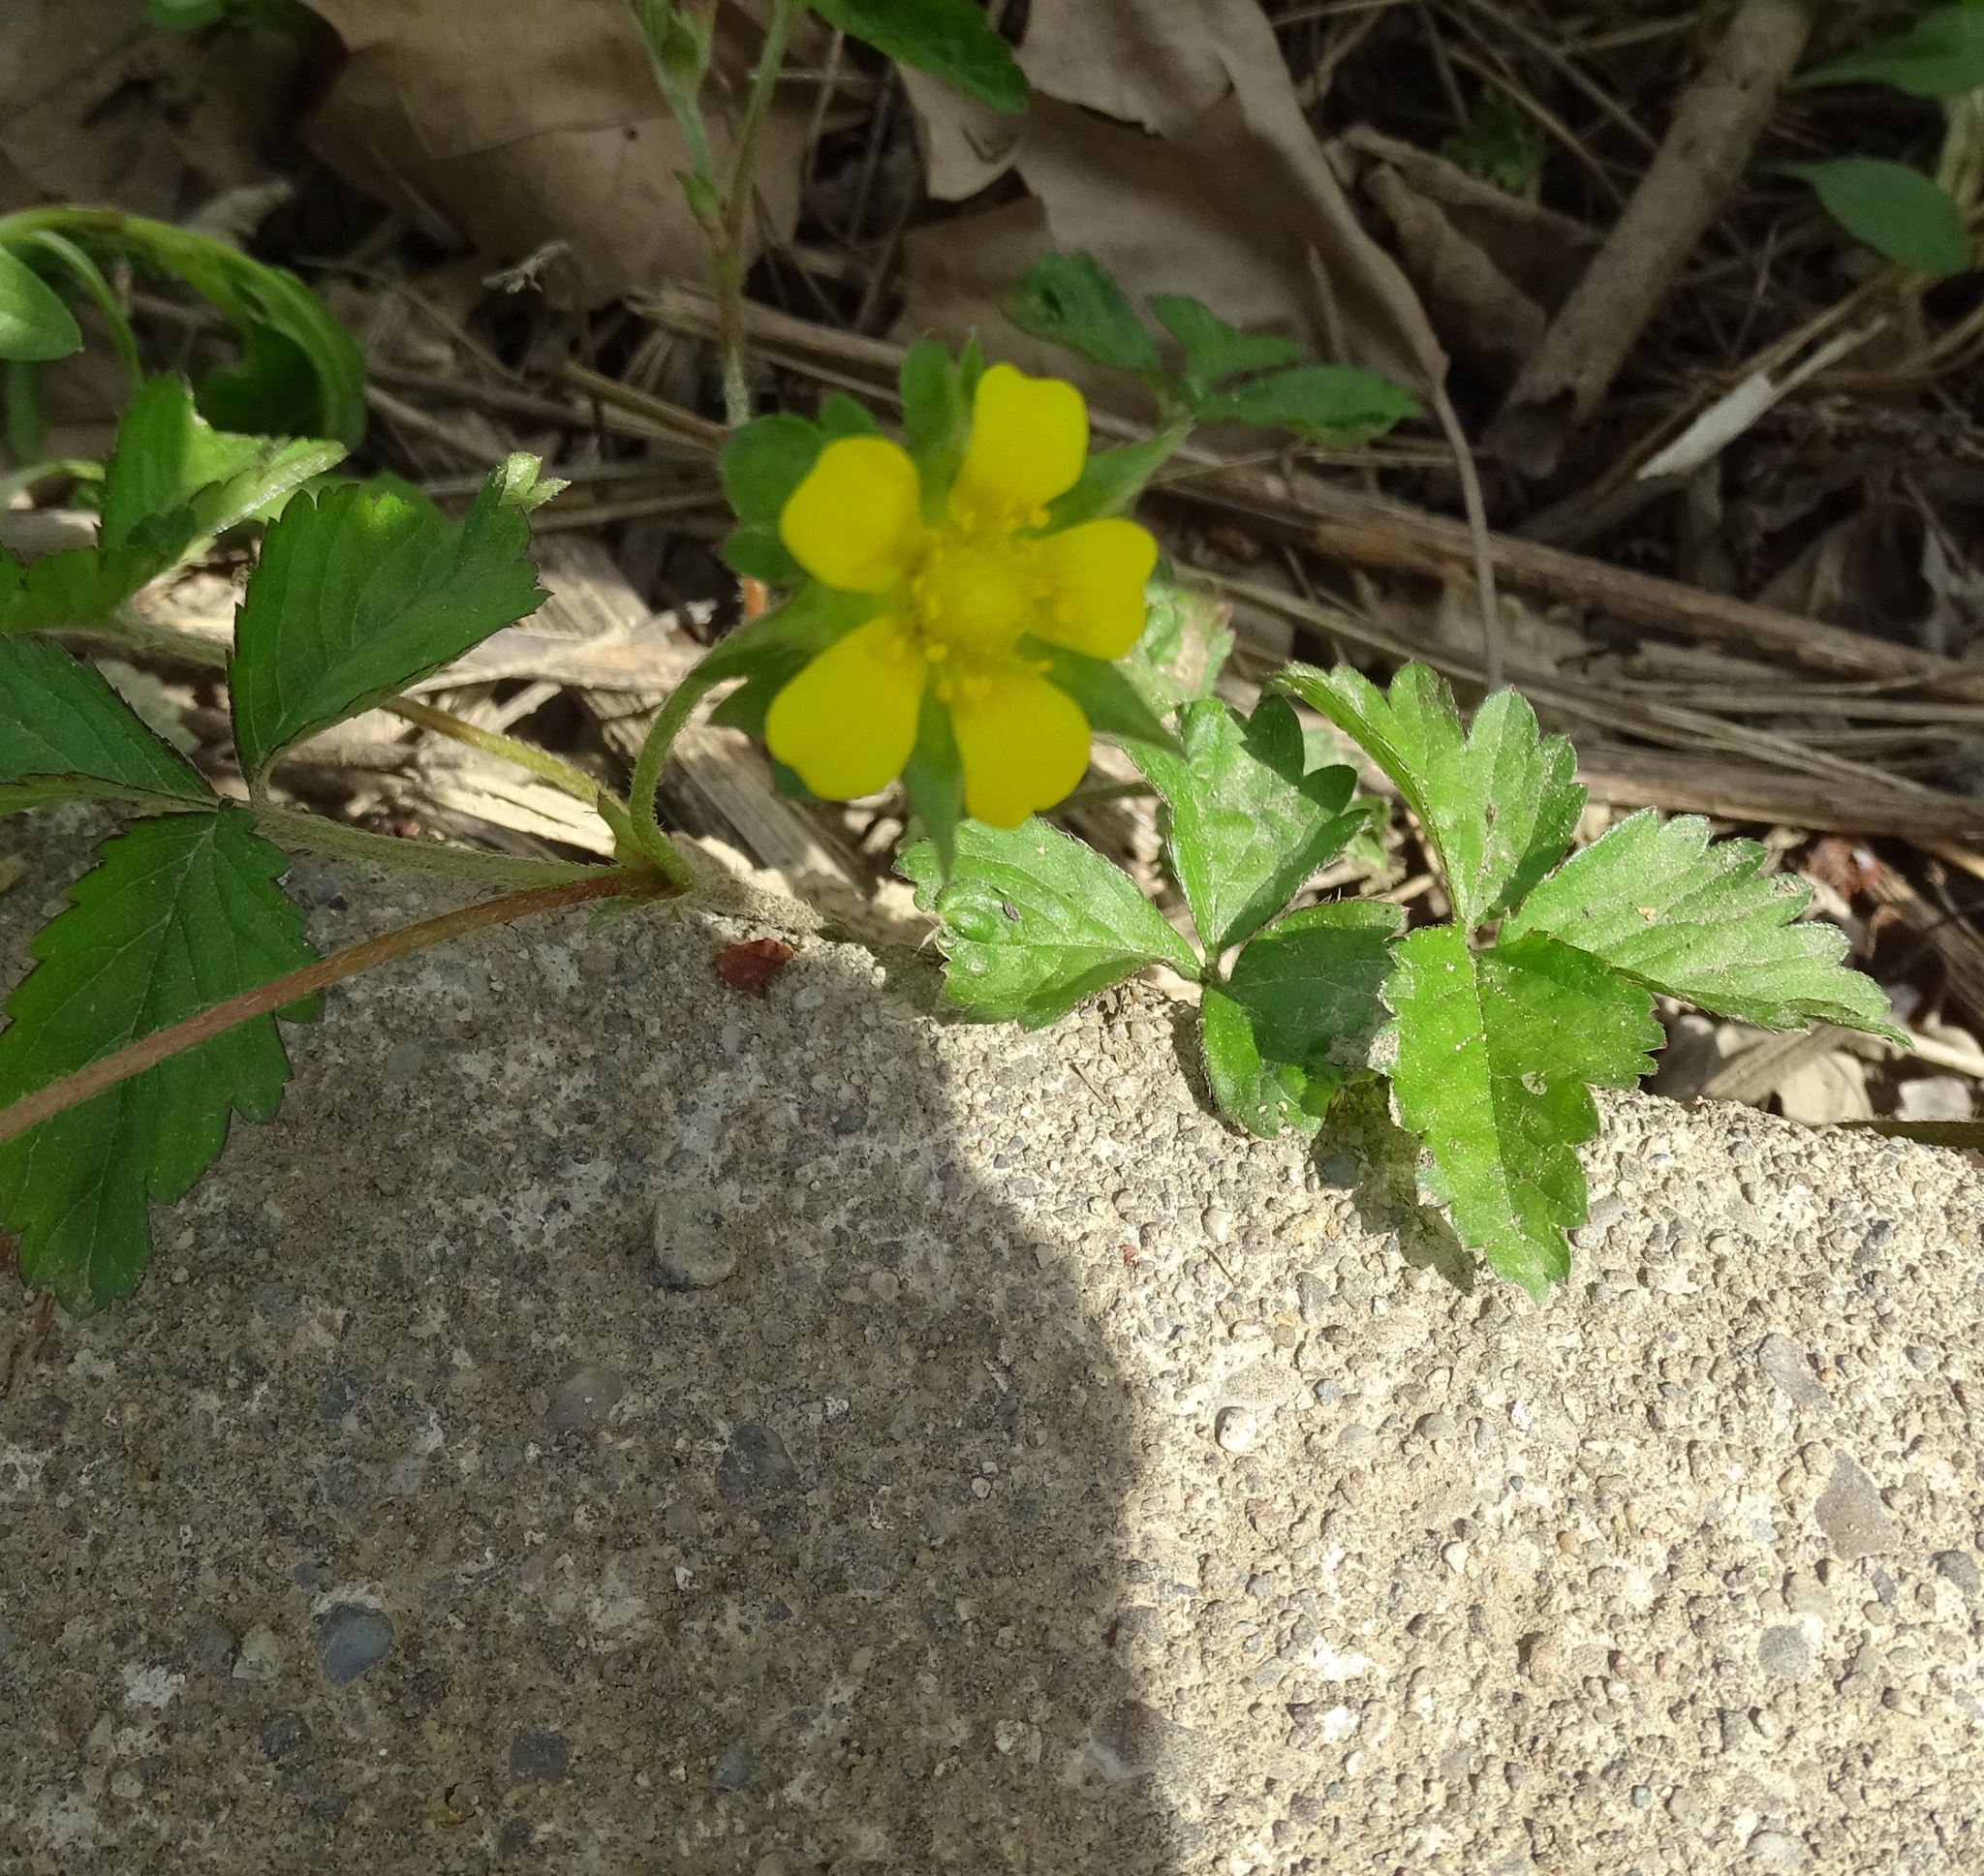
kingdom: Plantae
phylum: Tracheophyta
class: Magnoliopsida
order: Rosales
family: Rosaceae
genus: Potentilla
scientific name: Potentilla indica
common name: Yellow-flowered strawberry
